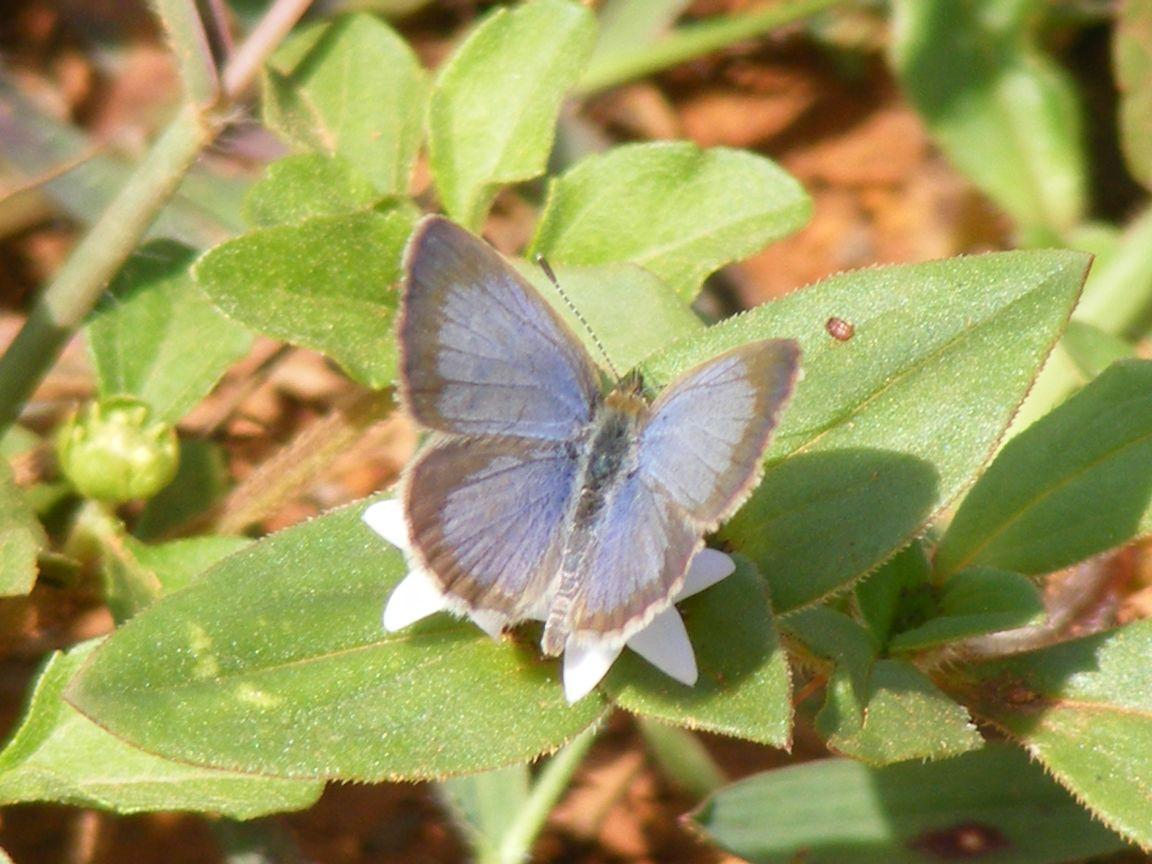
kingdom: Animalia
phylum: Arthropoda
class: Insecta
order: Lepidoptera
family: Lycaenidae
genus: Zizeeria
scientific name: Zizeeria knysna
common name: African grass blue
